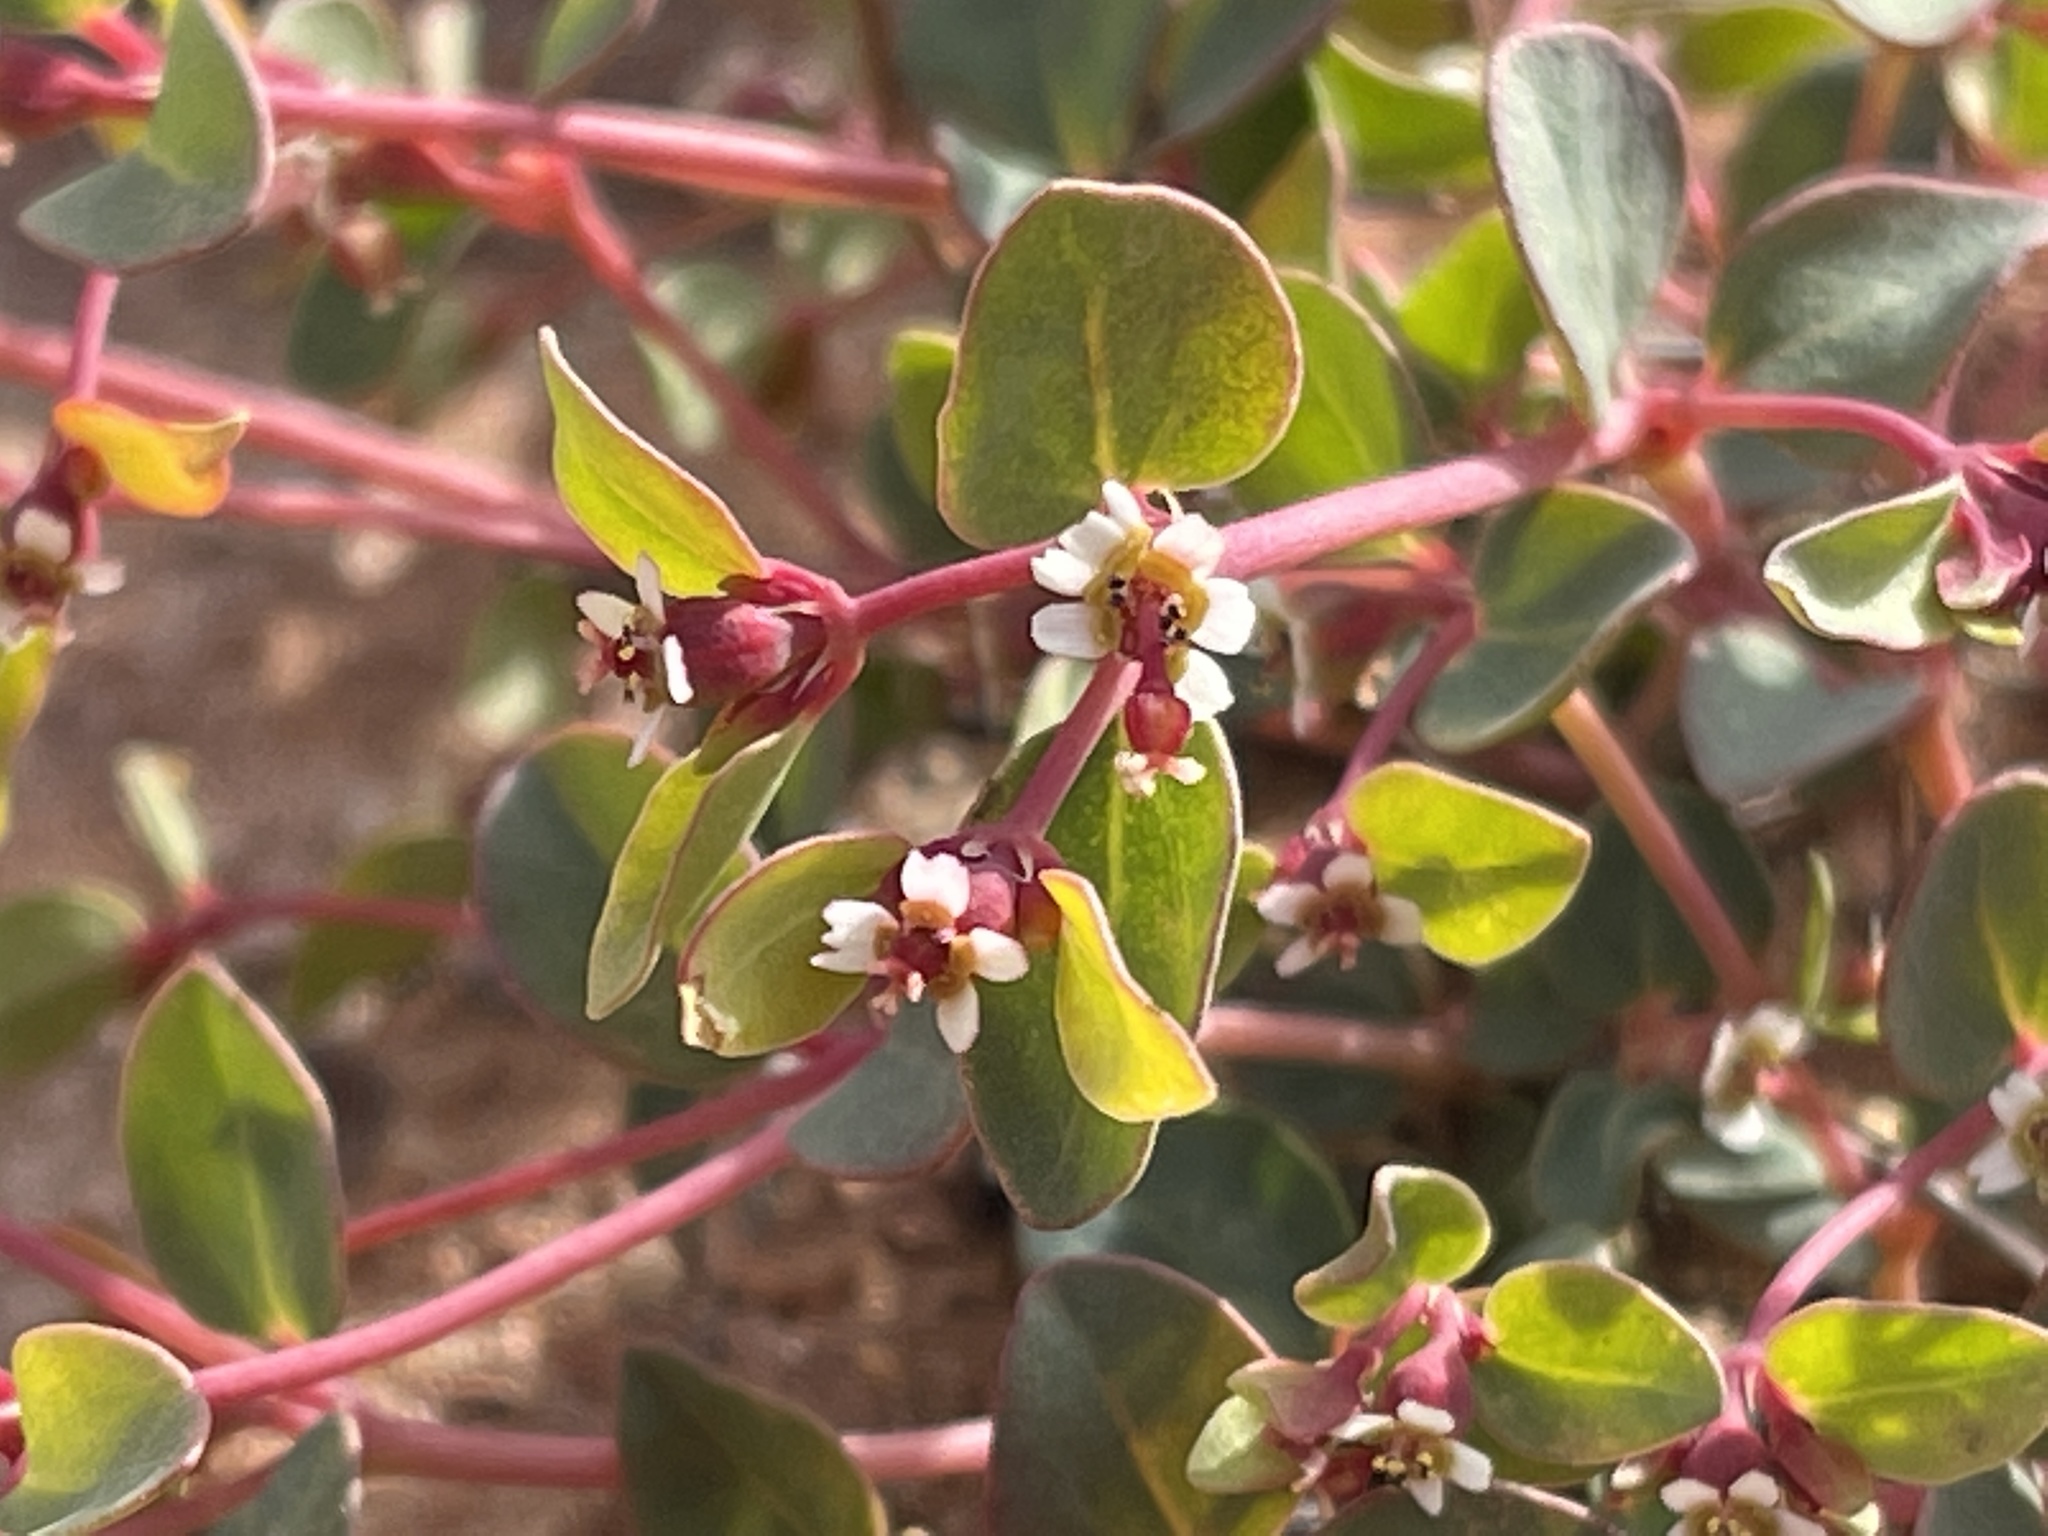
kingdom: Plantae
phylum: Tracheophyta
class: Magnoliopsida
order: Malpighiales
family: Euphorbiaceae
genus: Euphorbia
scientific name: Euphorbia fendleri
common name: Fendler's euphorbia
